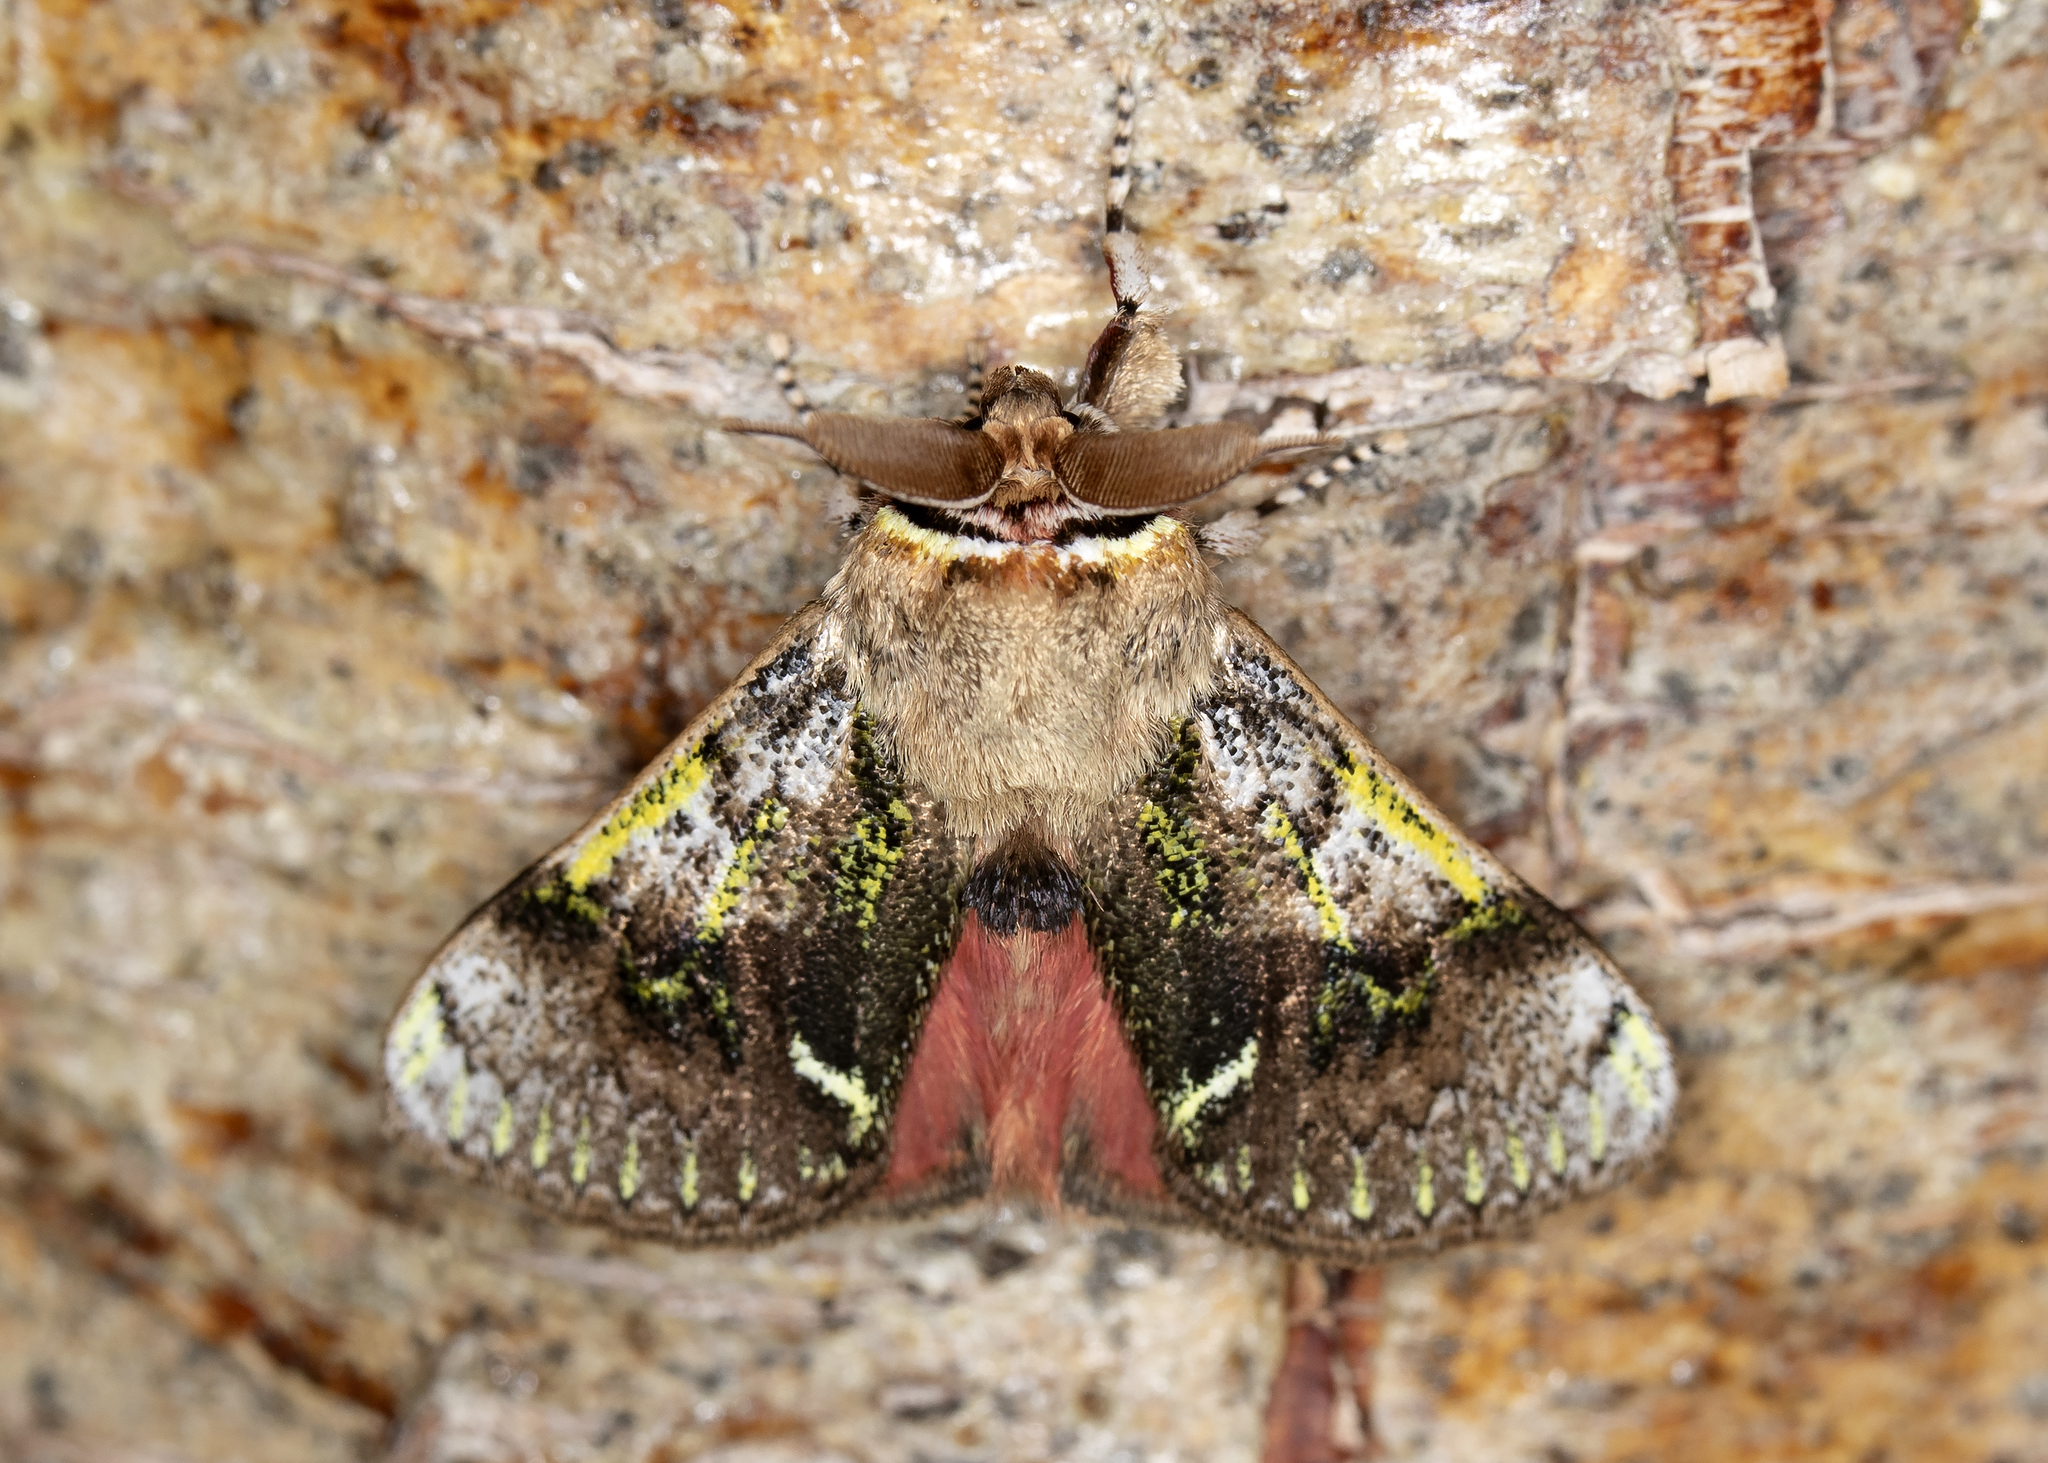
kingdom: Animalia
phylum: Arthropoda
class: Insecta
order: Lepidoptera
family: Aididae
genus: Aidos
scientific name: Aidos yamouna
